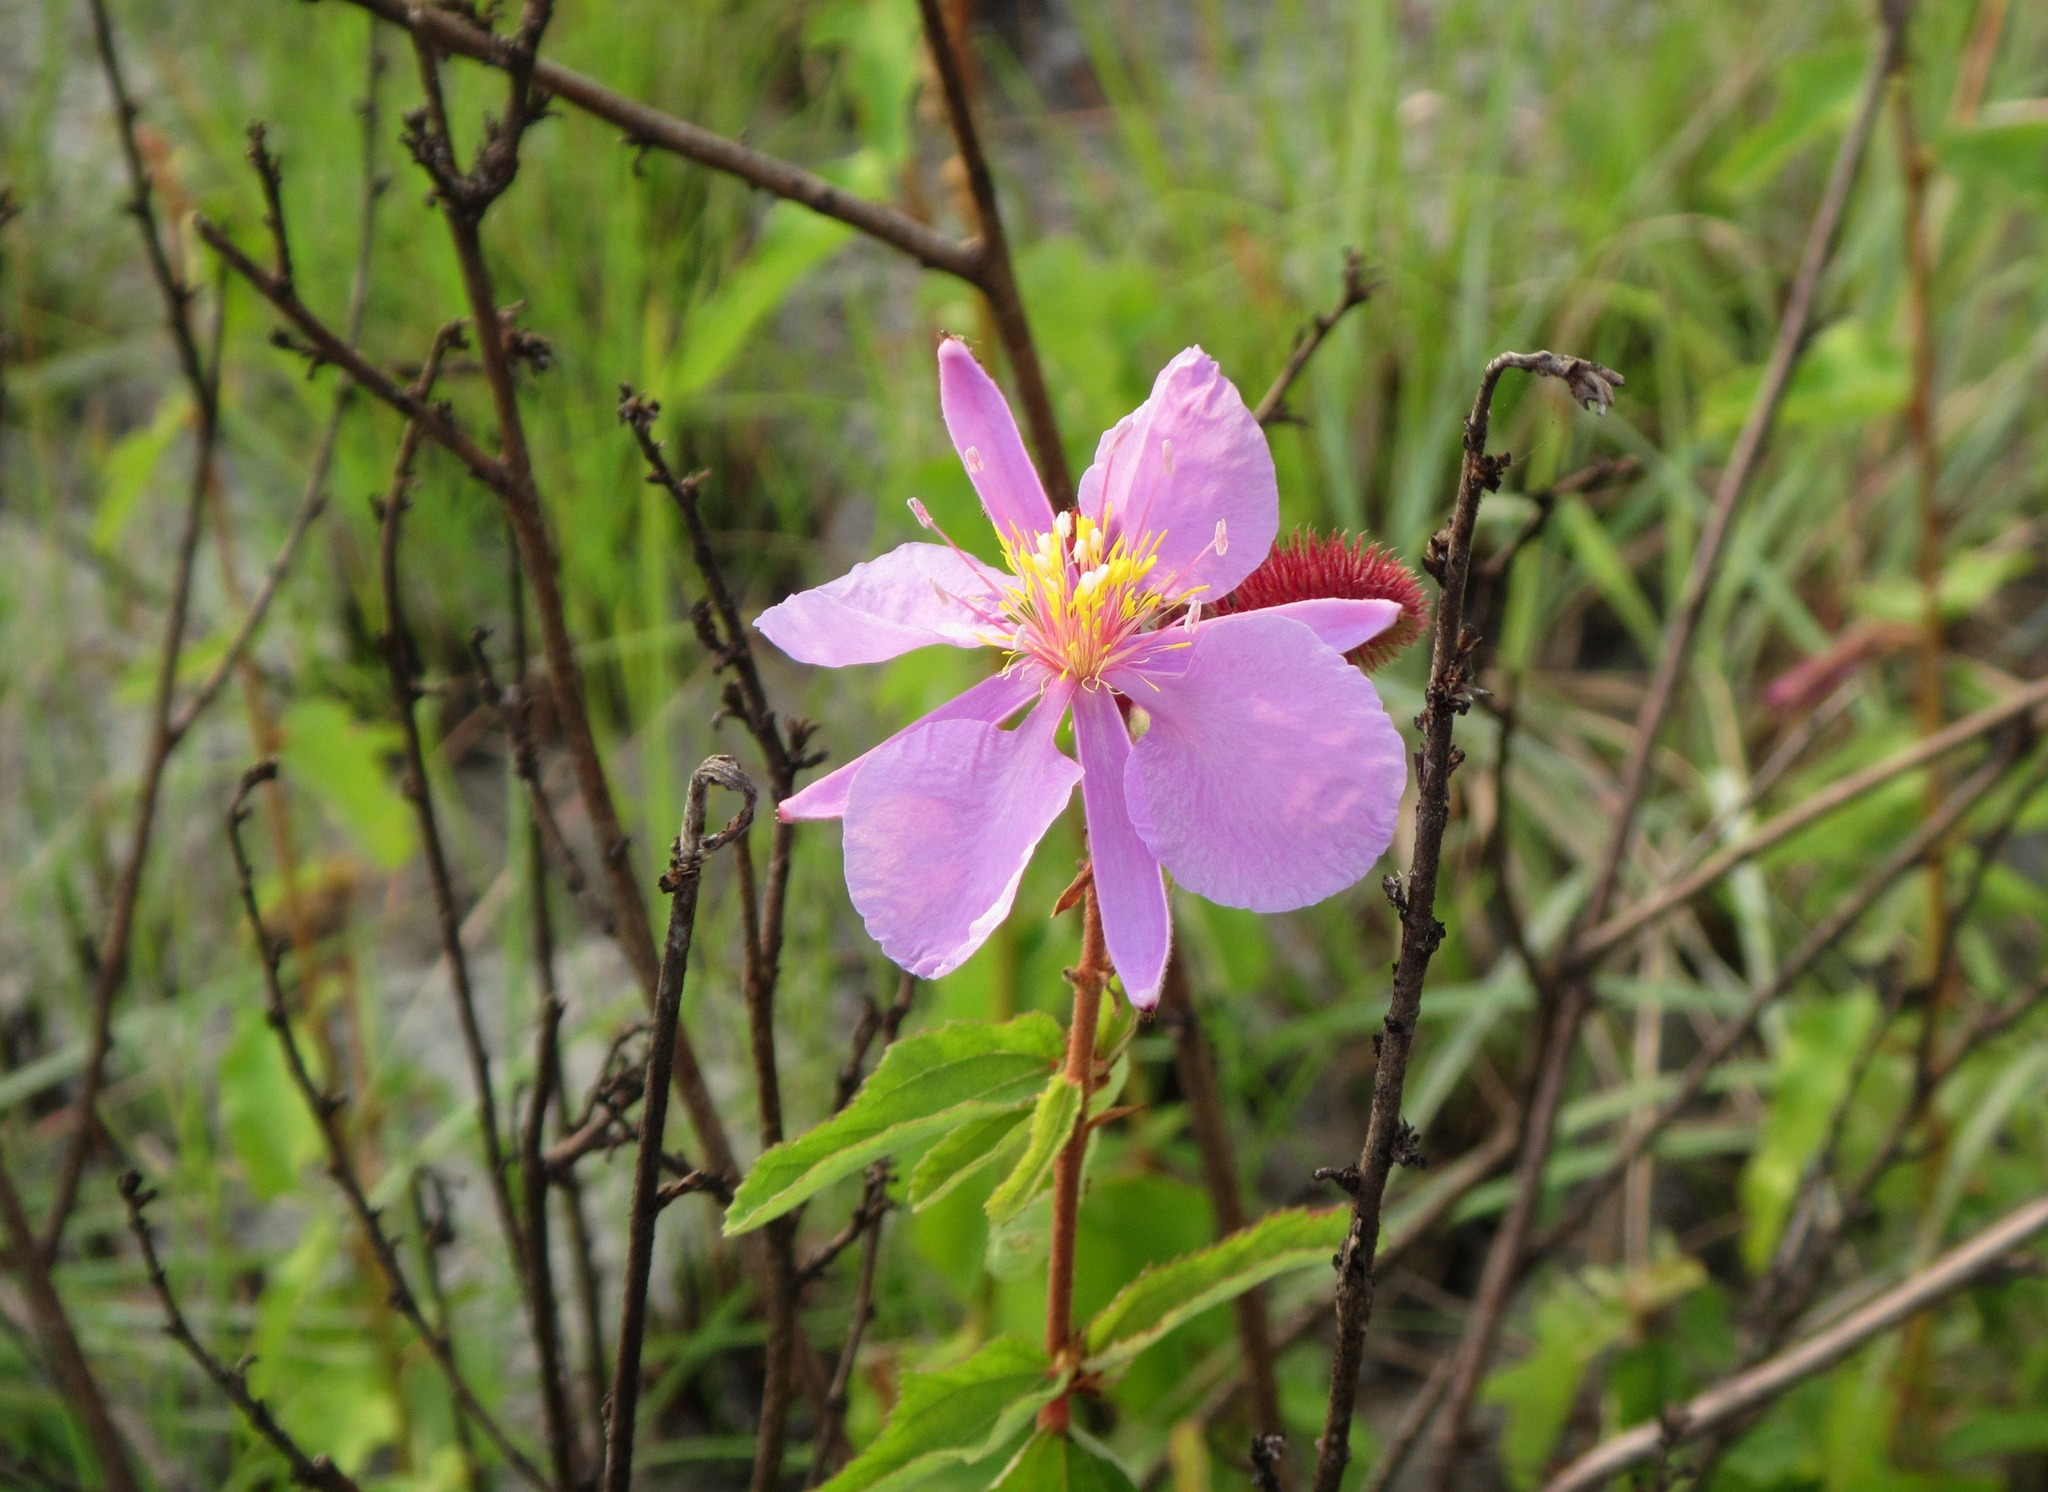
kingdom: Plantae
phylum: Tracheophyta
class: Magnoliopsida
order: Malvales
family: Malvaceae
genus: Clappertonia
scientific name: Clappertonia ficifolia
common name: Bolo-bolo
